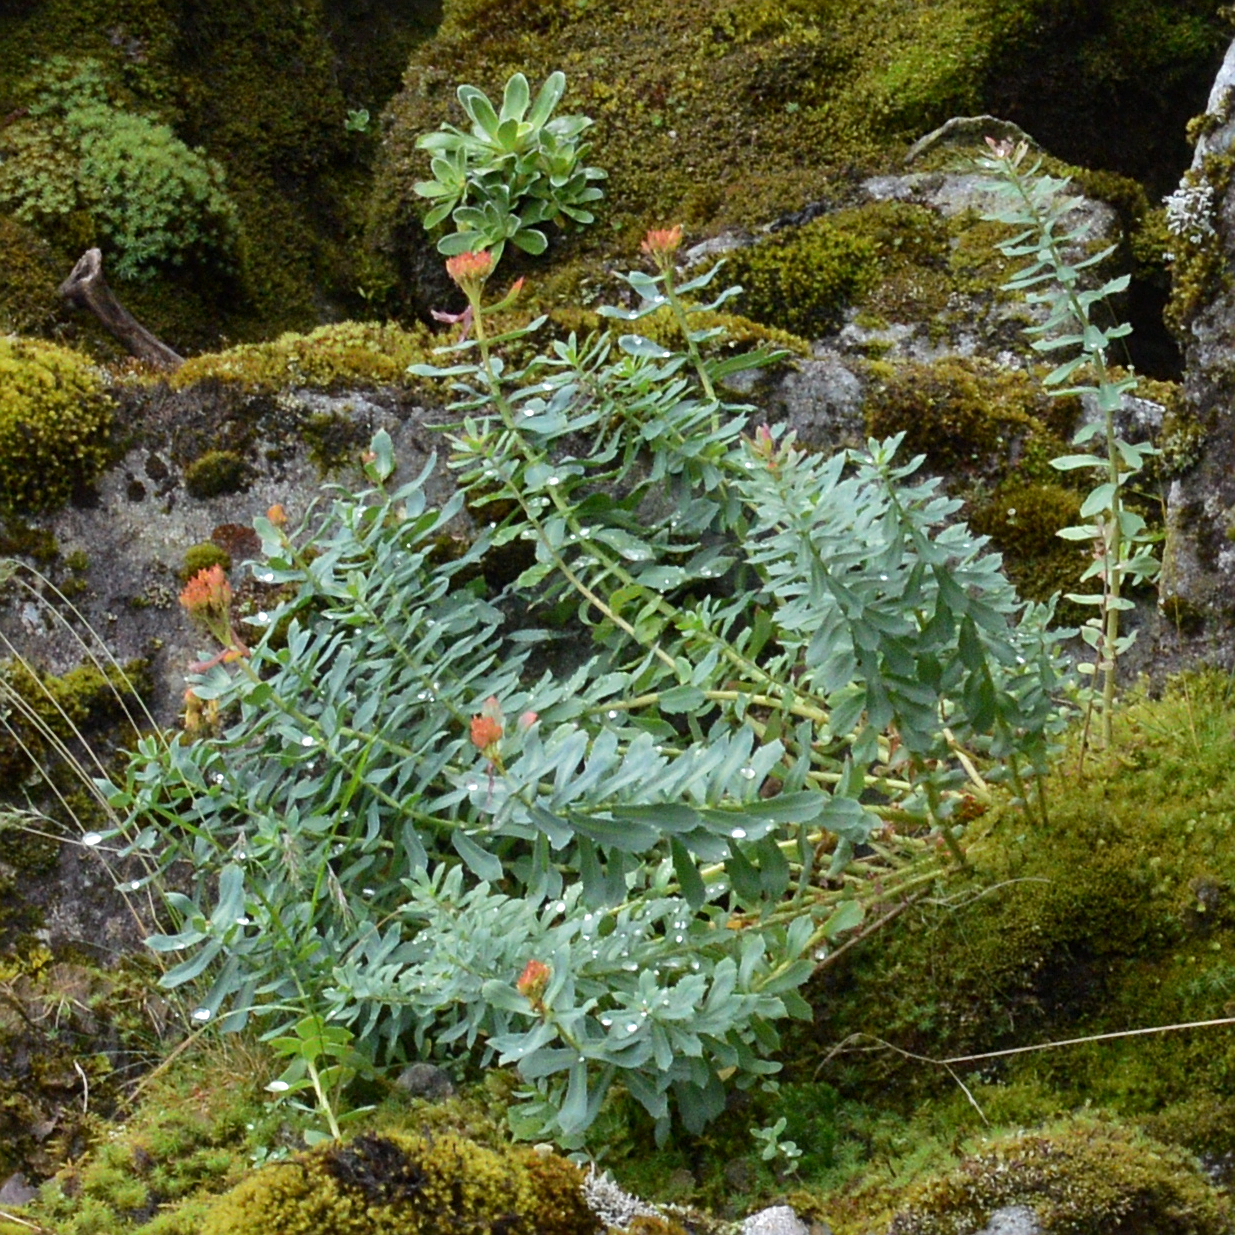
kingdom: Plantae
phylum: Tracheophyta
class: Magnoliopsida
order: Saxifragales
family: Crassulaceae
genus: Rhodiola
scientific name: Rhodiola rosea
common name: Roseroot
